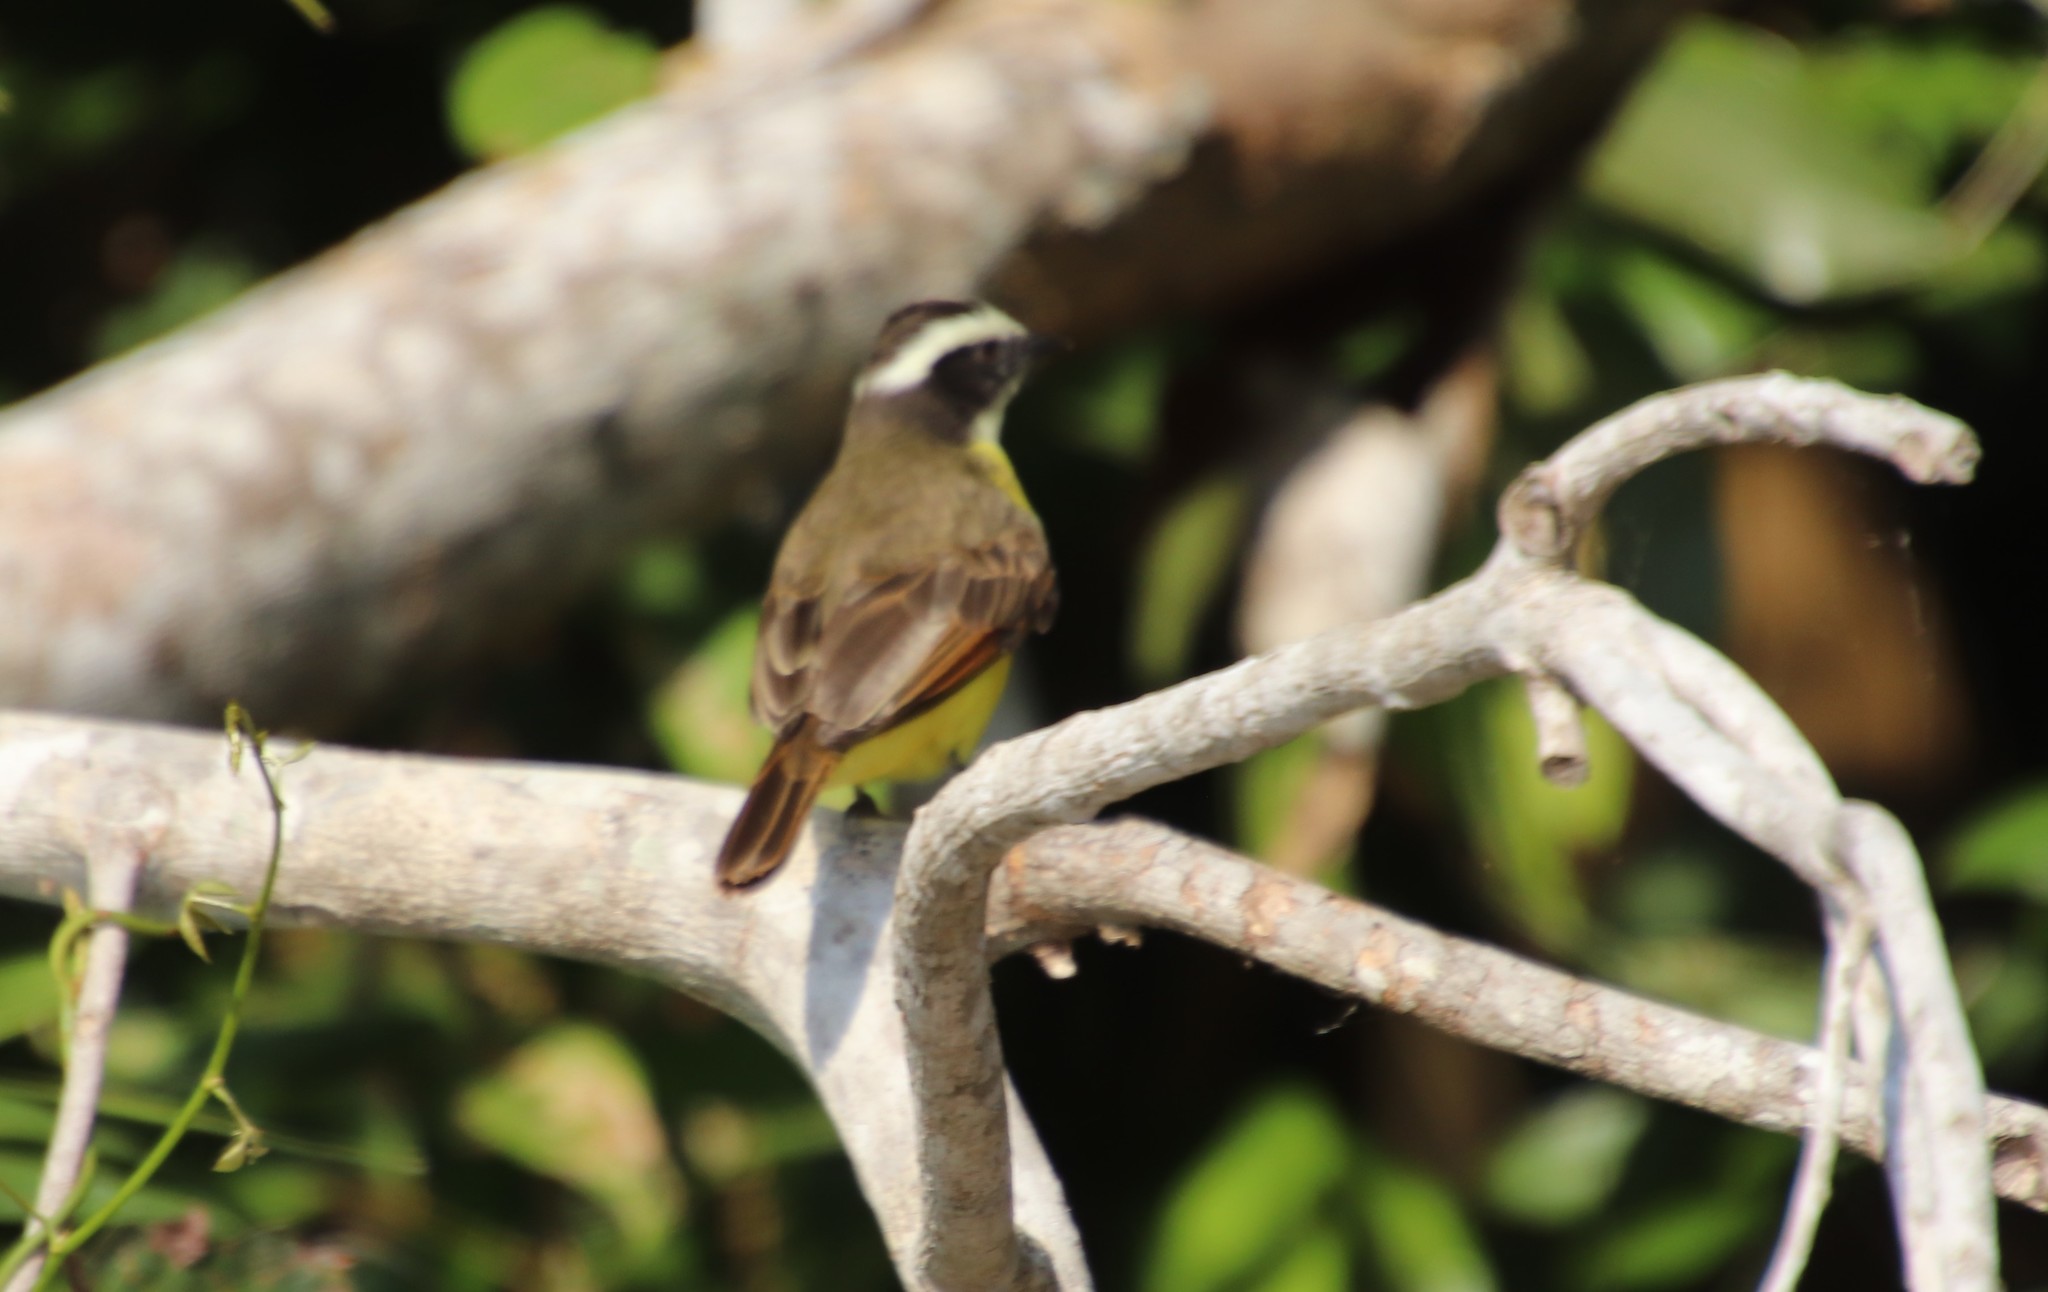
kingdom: Animalia
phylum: Chordata
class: Aves
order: Passeriformes
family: Tyrannidae
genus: Myiozetetes
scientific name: Myiozetetes cayanensis
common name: Rusty-margined flycatcher
